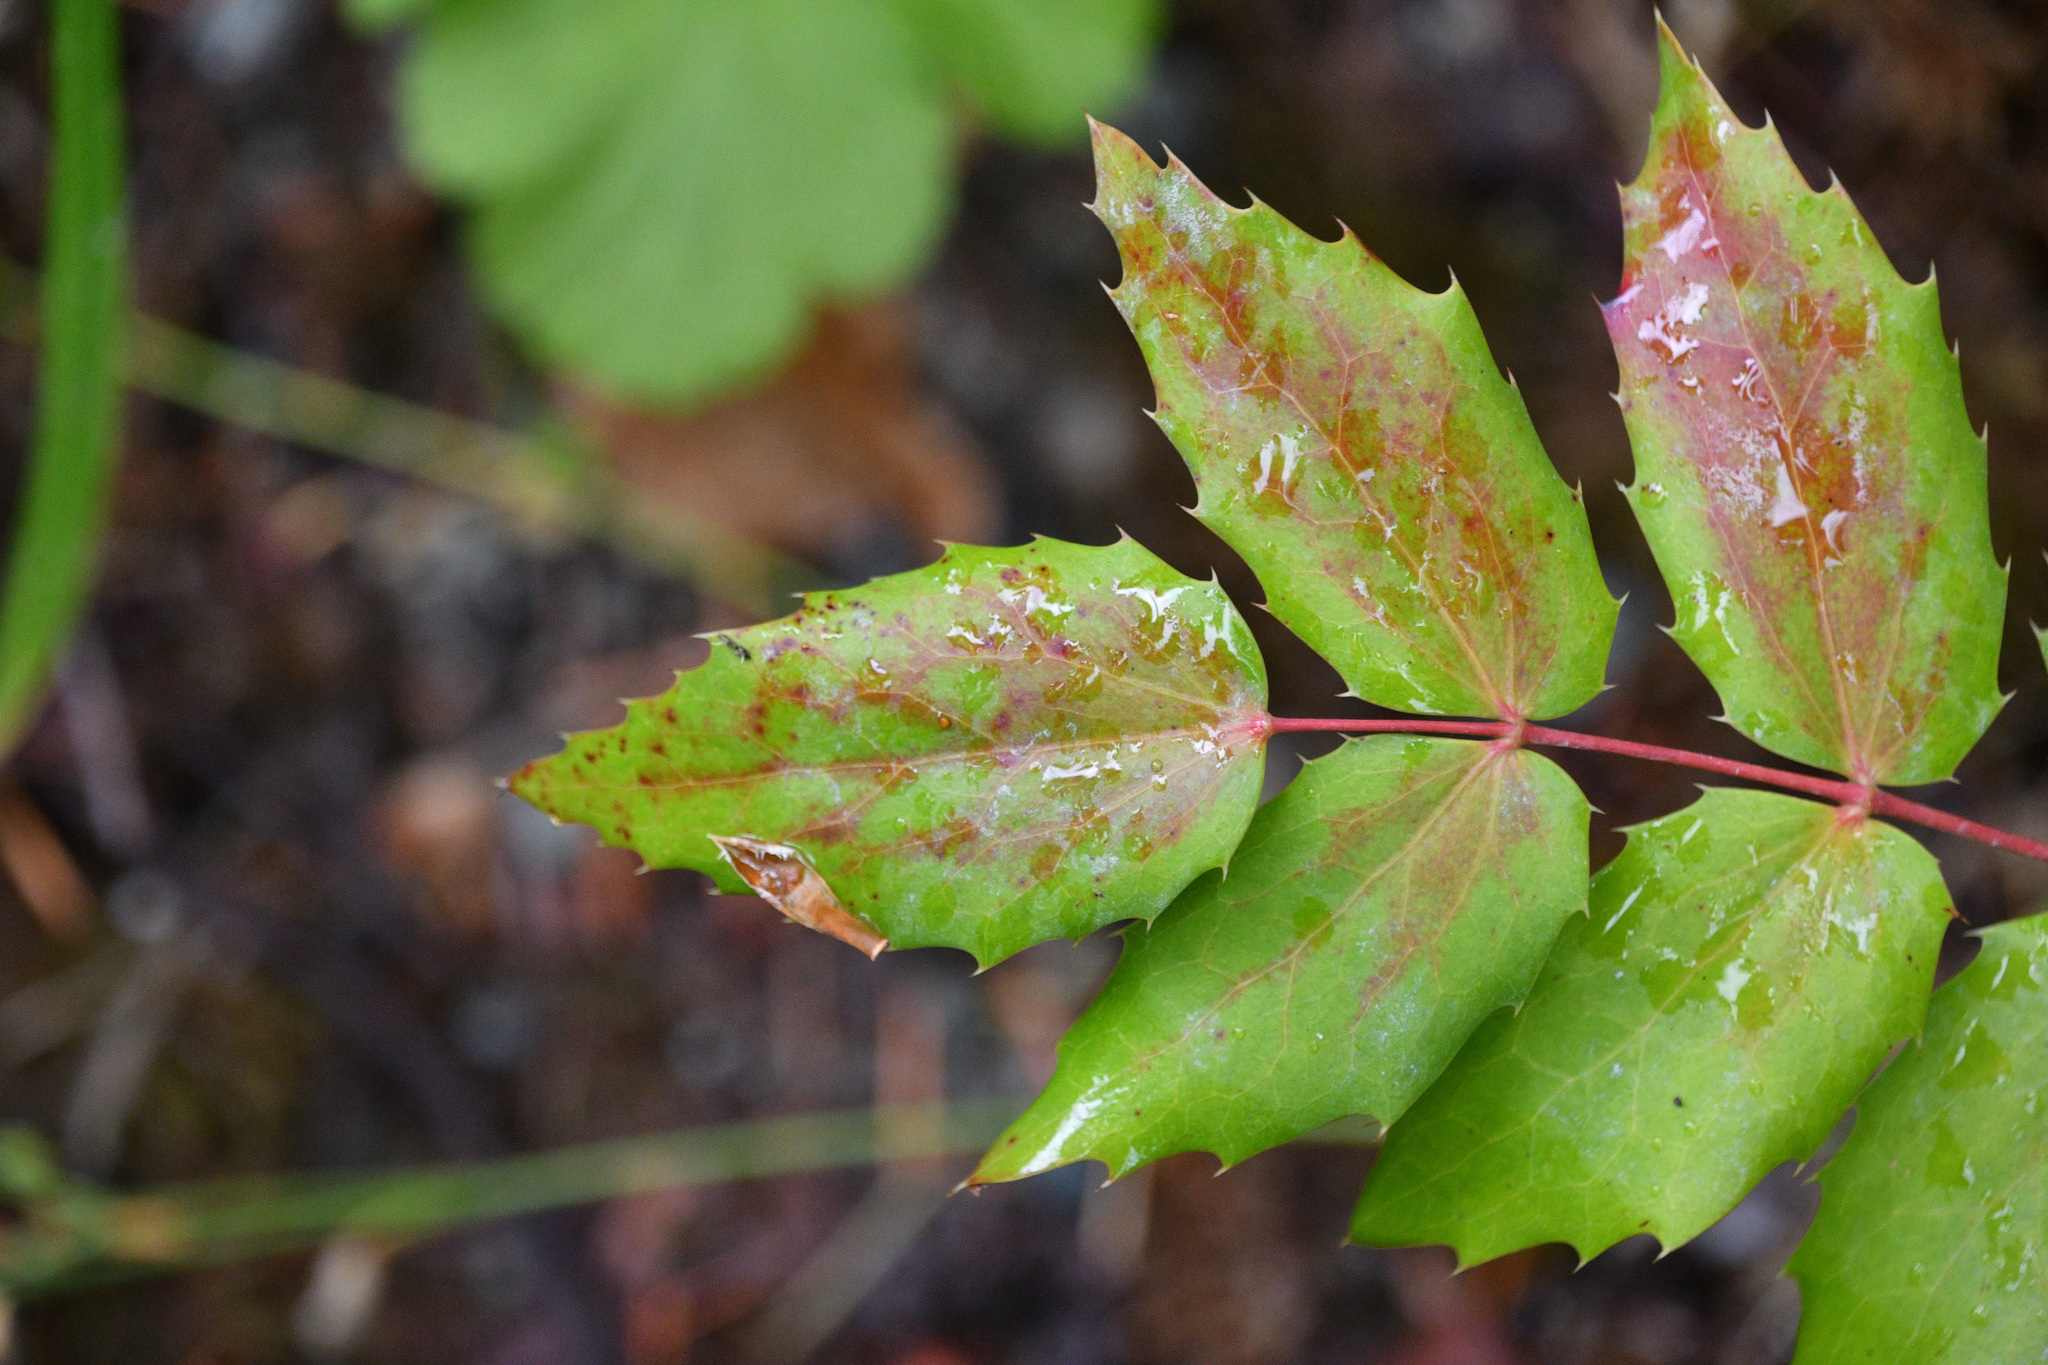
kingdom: Plantae
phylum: Tracheophyta
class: Magnoliopsida
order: Ranunculales
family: Berberidaceae
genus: Mahonia
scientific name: Mahonia nervosa
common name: Cascade oregon-grape
